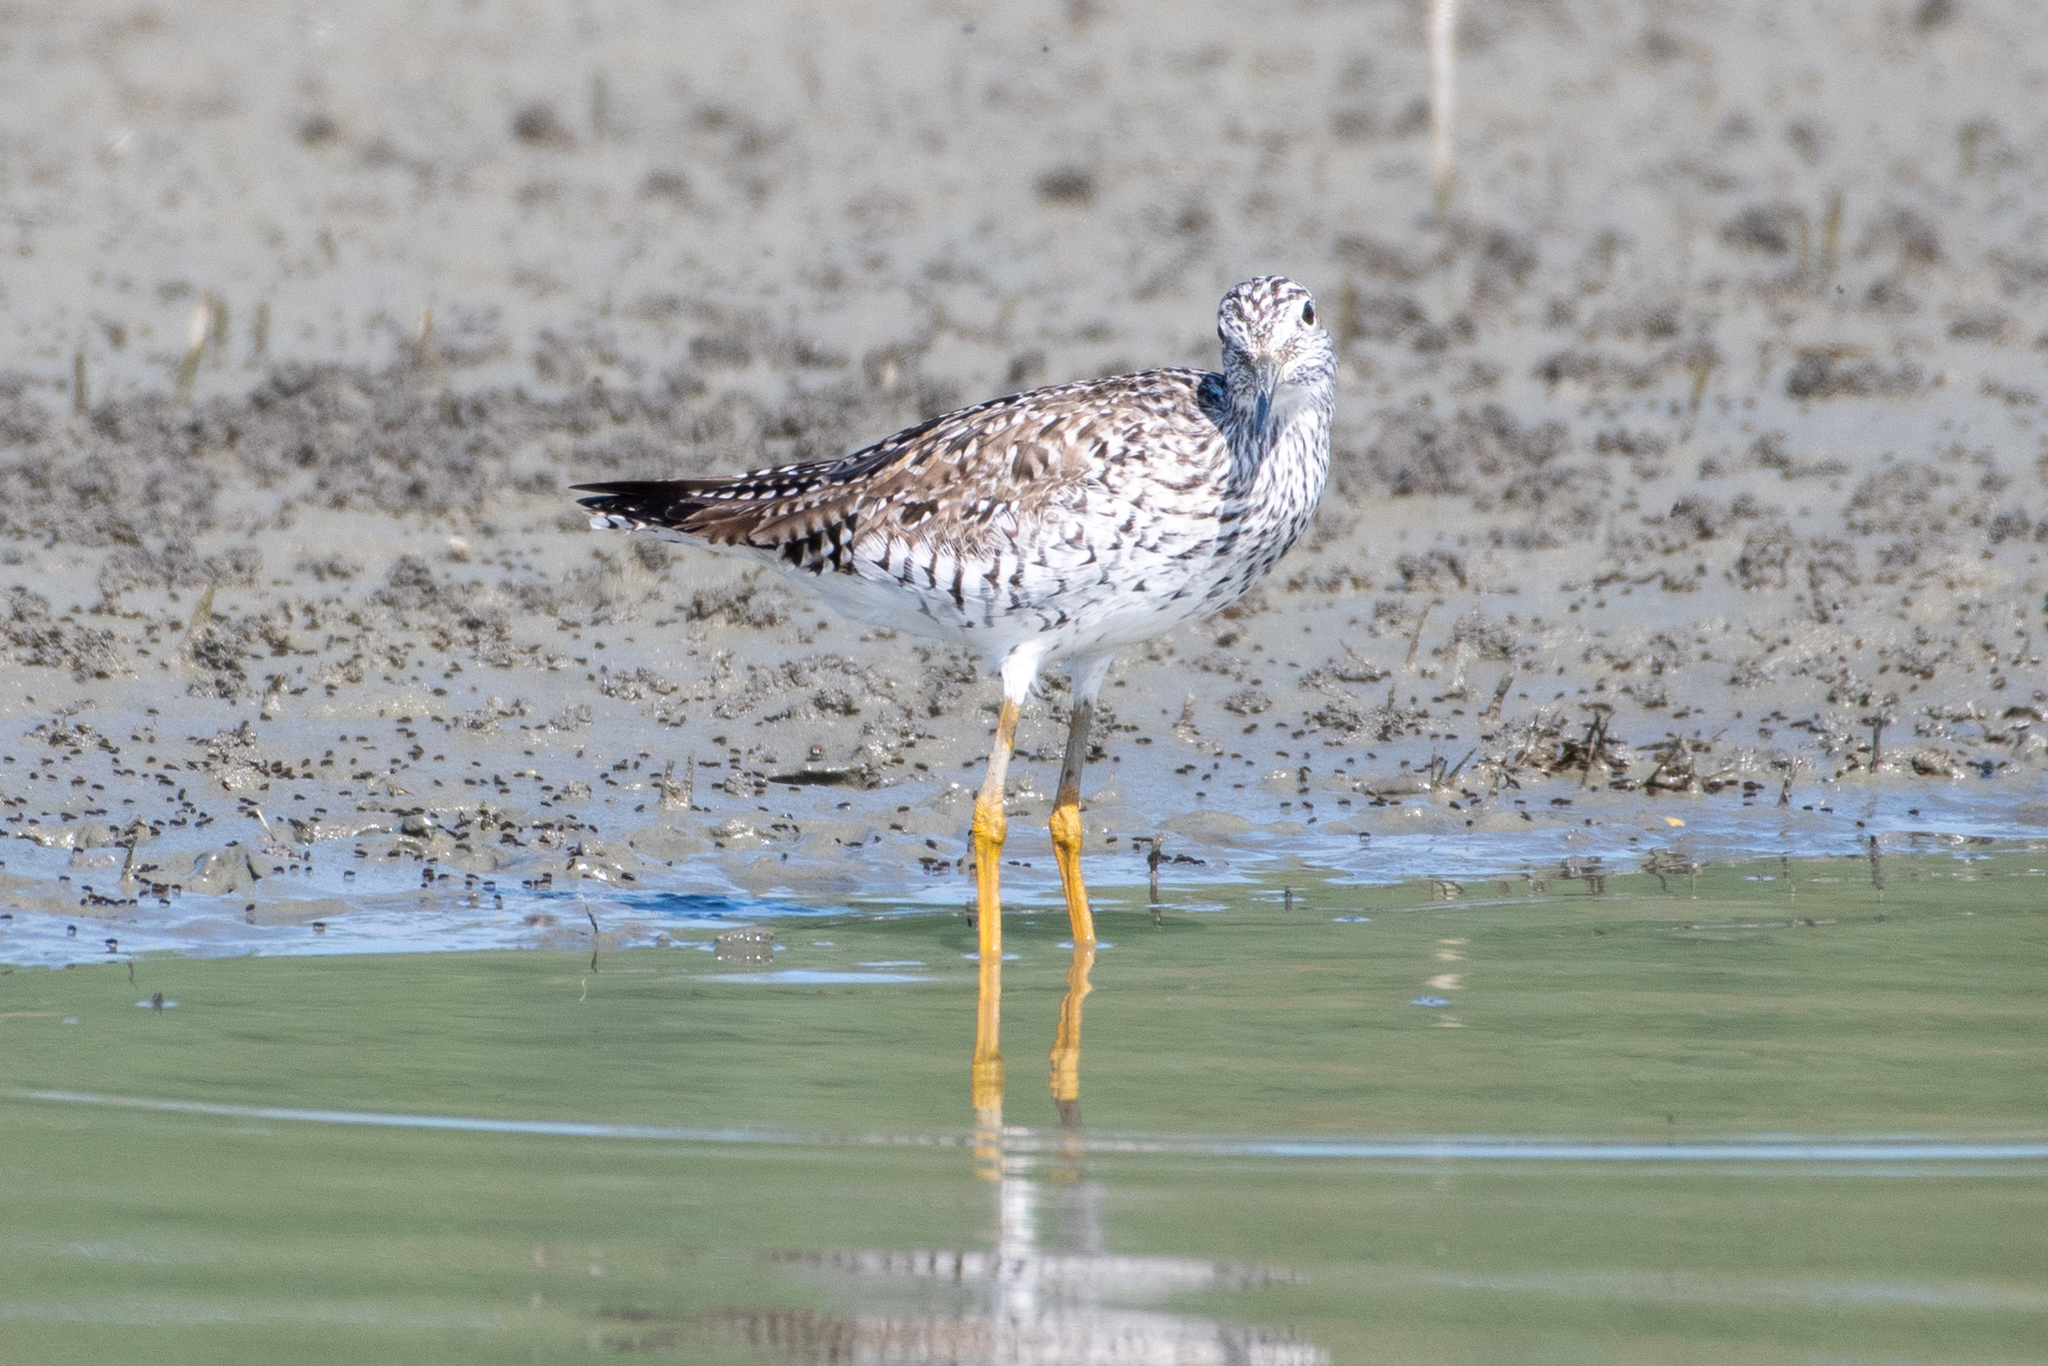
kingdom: Animalia
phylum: Chordata
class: Aves
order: Charadriiformes
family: Scolopacidae
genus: Tringa
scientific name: Tringa melanoleuca
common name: Greater yellowlegs
